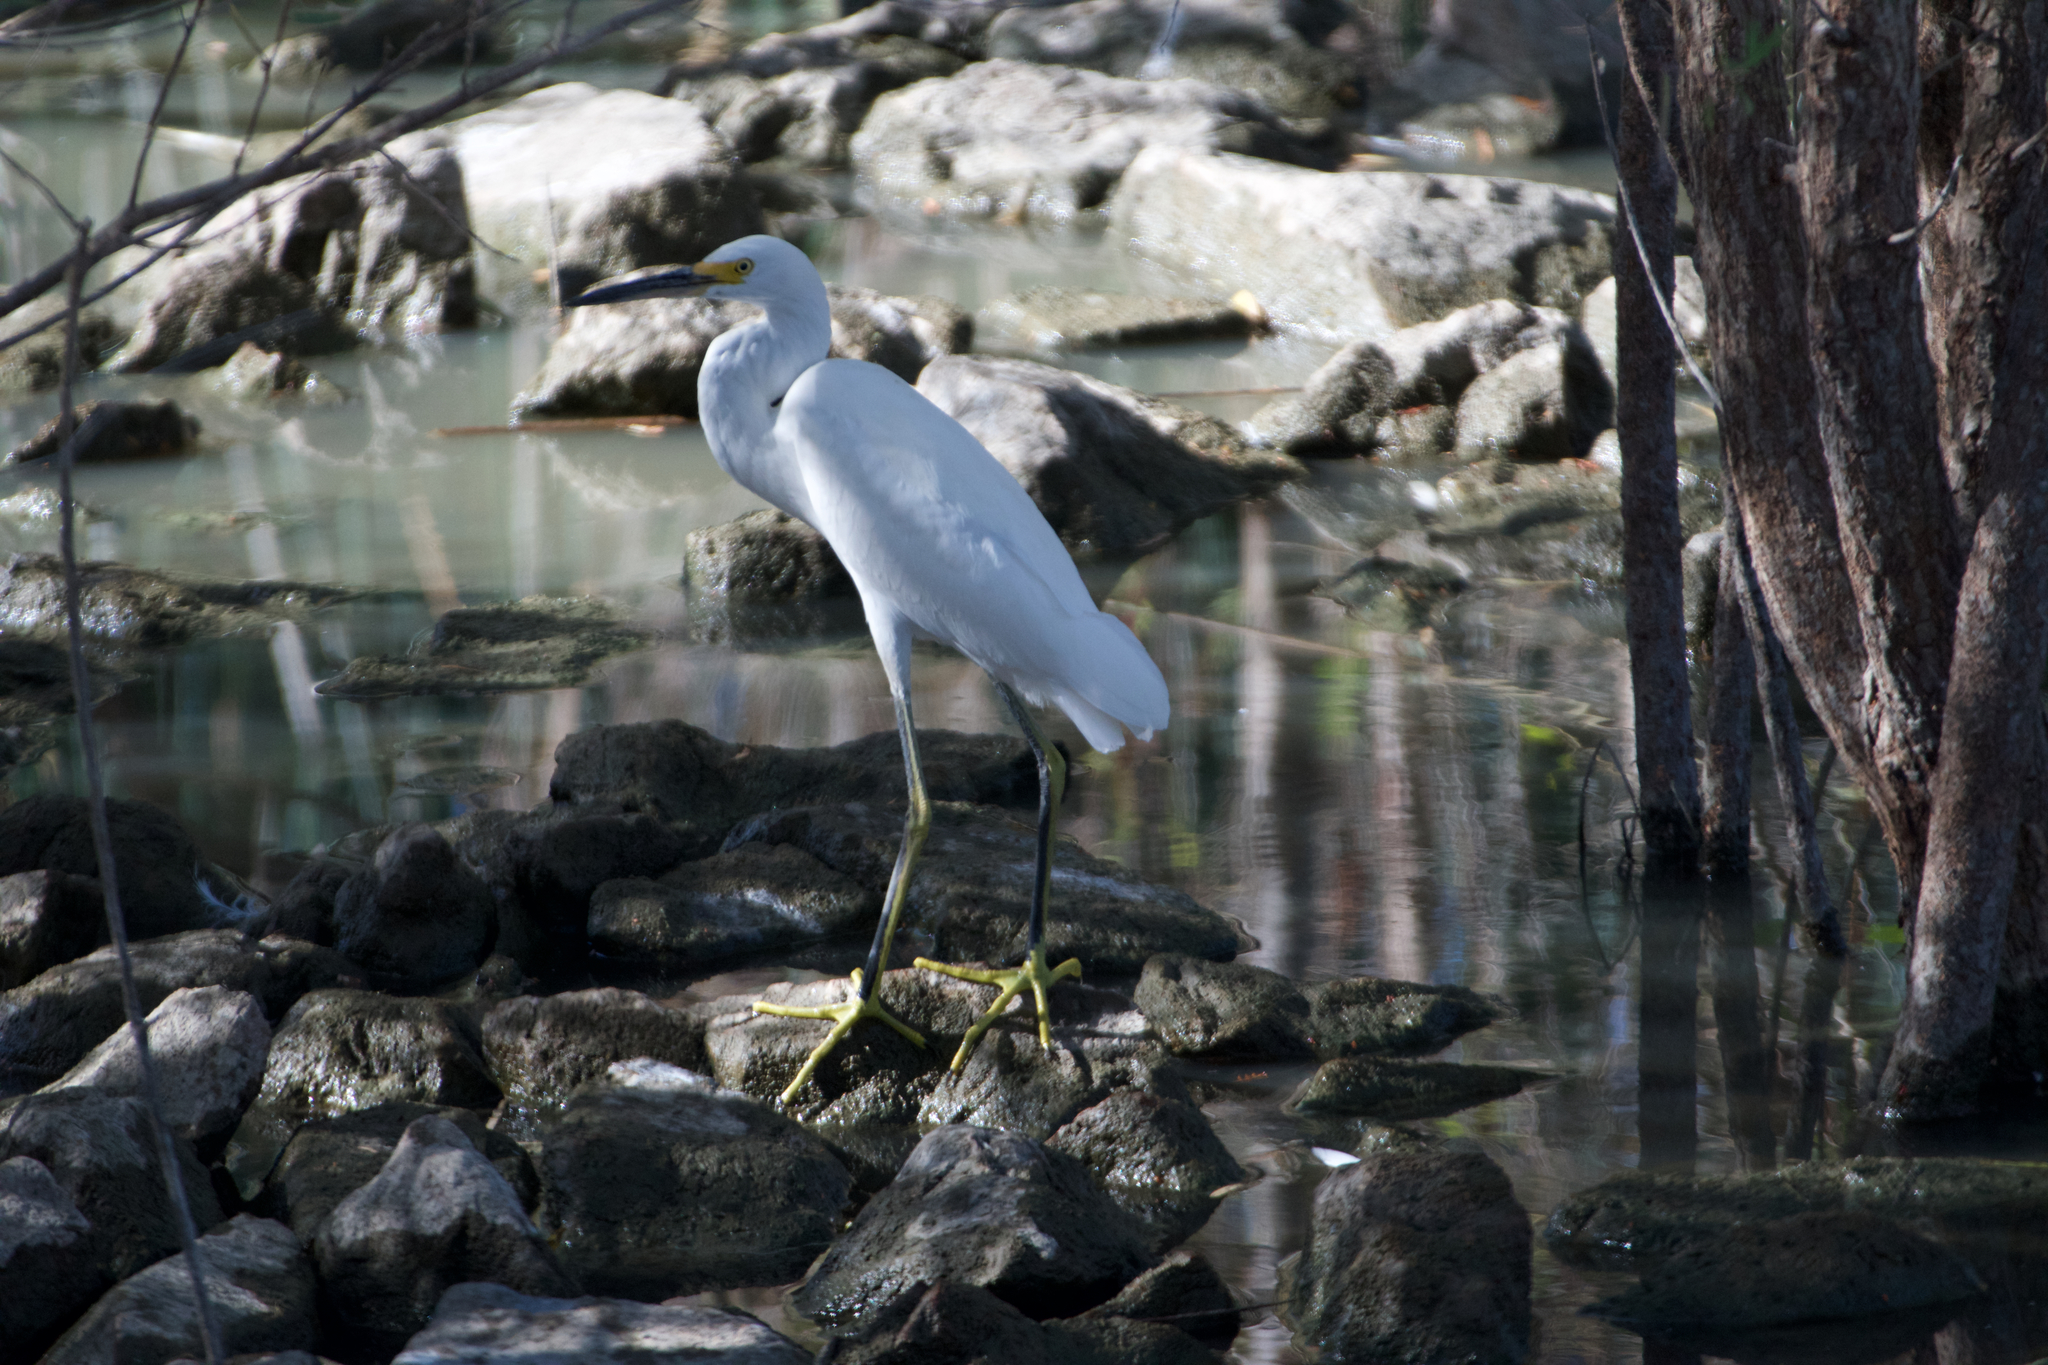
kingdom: Animalia
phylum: Chordata
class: Aves
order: Pelecaniformes
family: Ardeidae
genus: Egretta
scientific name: Egretta thula
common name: Snowy egret
